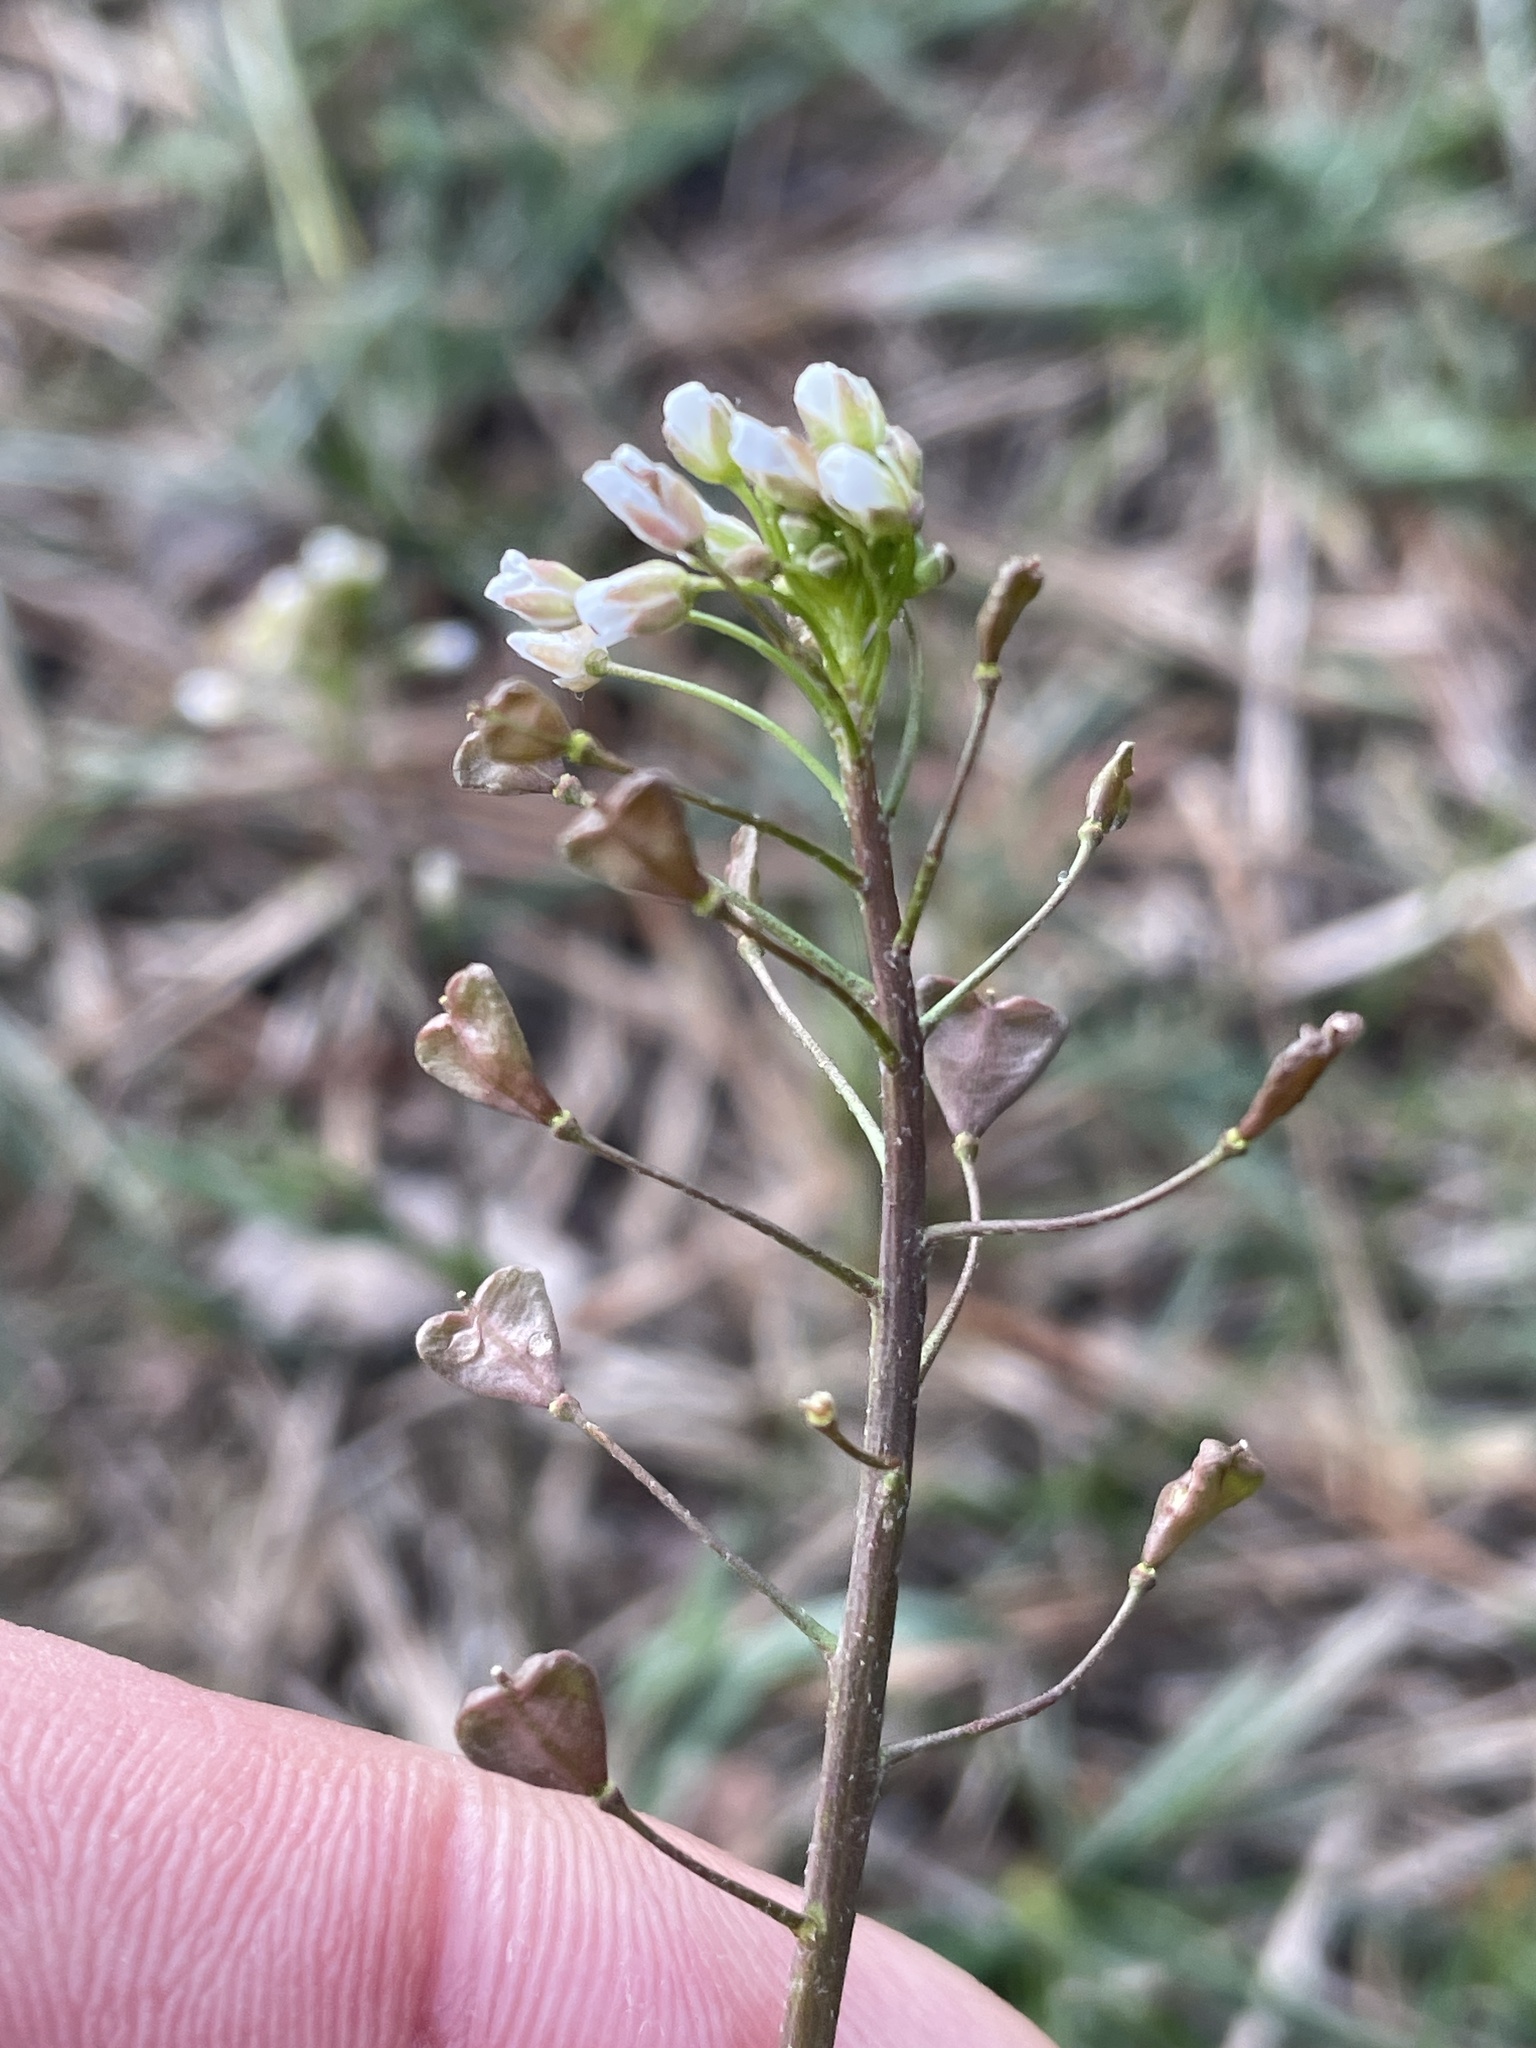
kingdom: Plantae
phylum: Tracheophyta
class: Magnoliopsida
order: Brassicales
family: Brassicaceae
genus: Capsella
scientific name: Capsella bursa-pastoris
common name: Shepherd's purse
